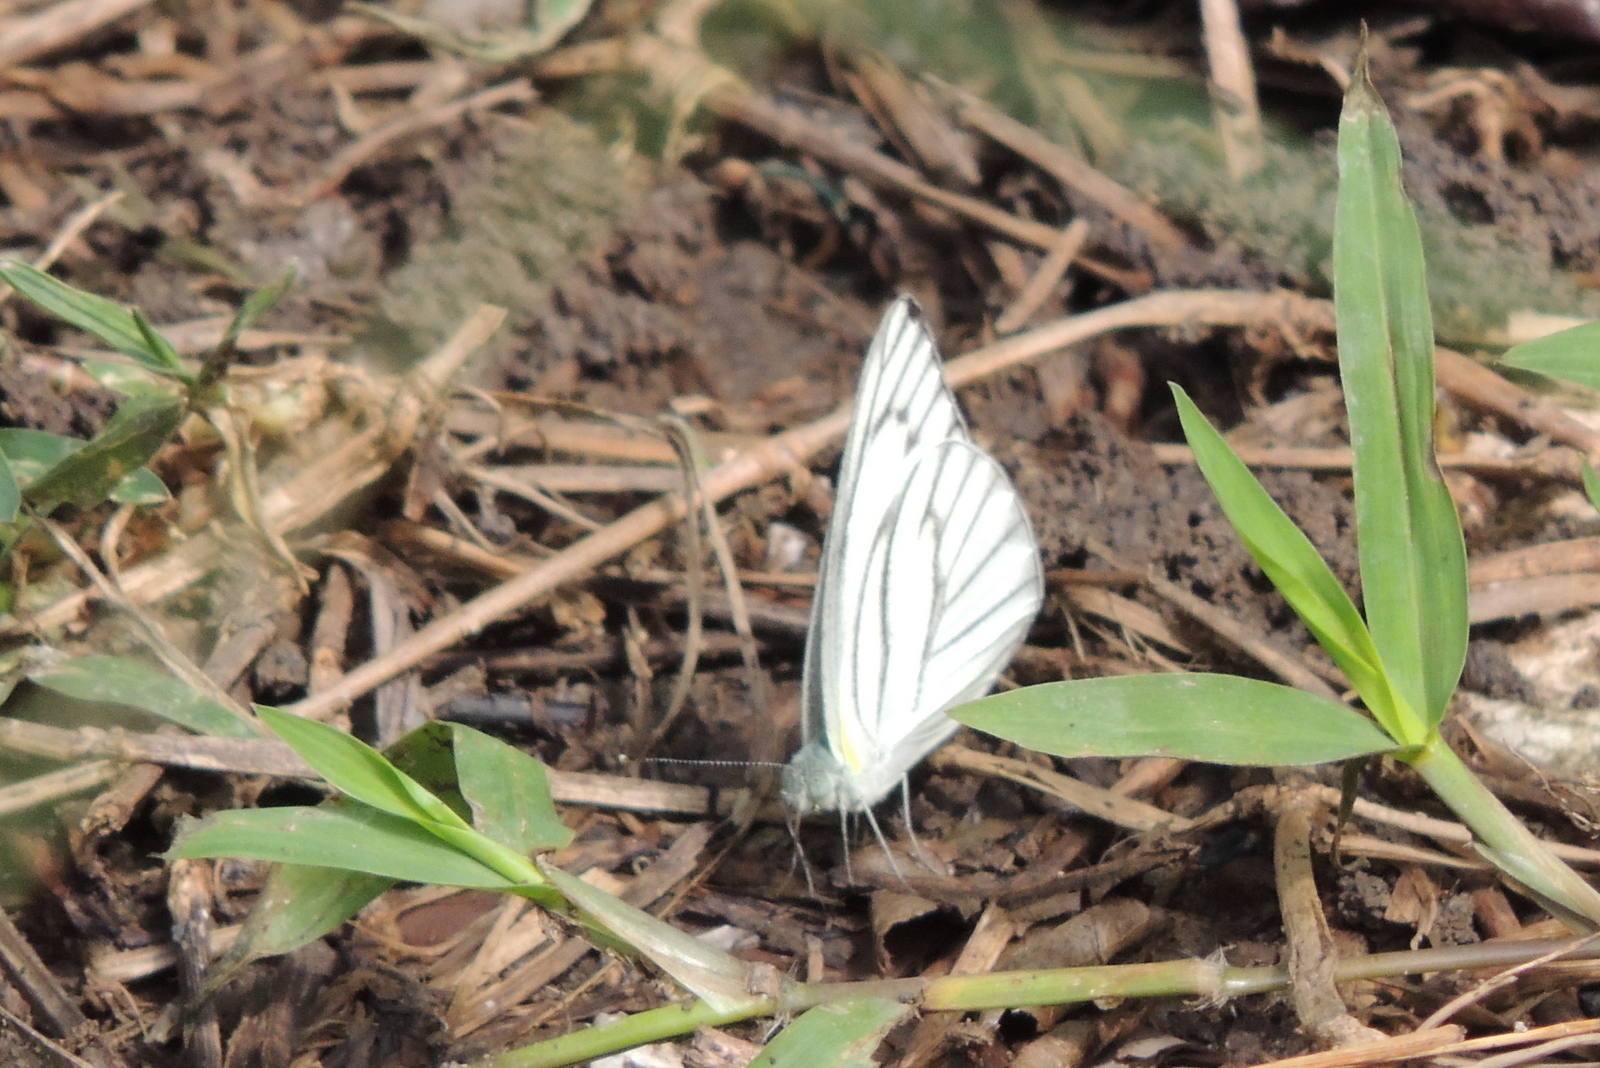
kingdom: Animalia
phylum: Arthropoda
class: Insecta
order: Lepidoptera
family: Pieridae
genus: Appias
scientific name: Appias libythea
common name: Striped albatross
